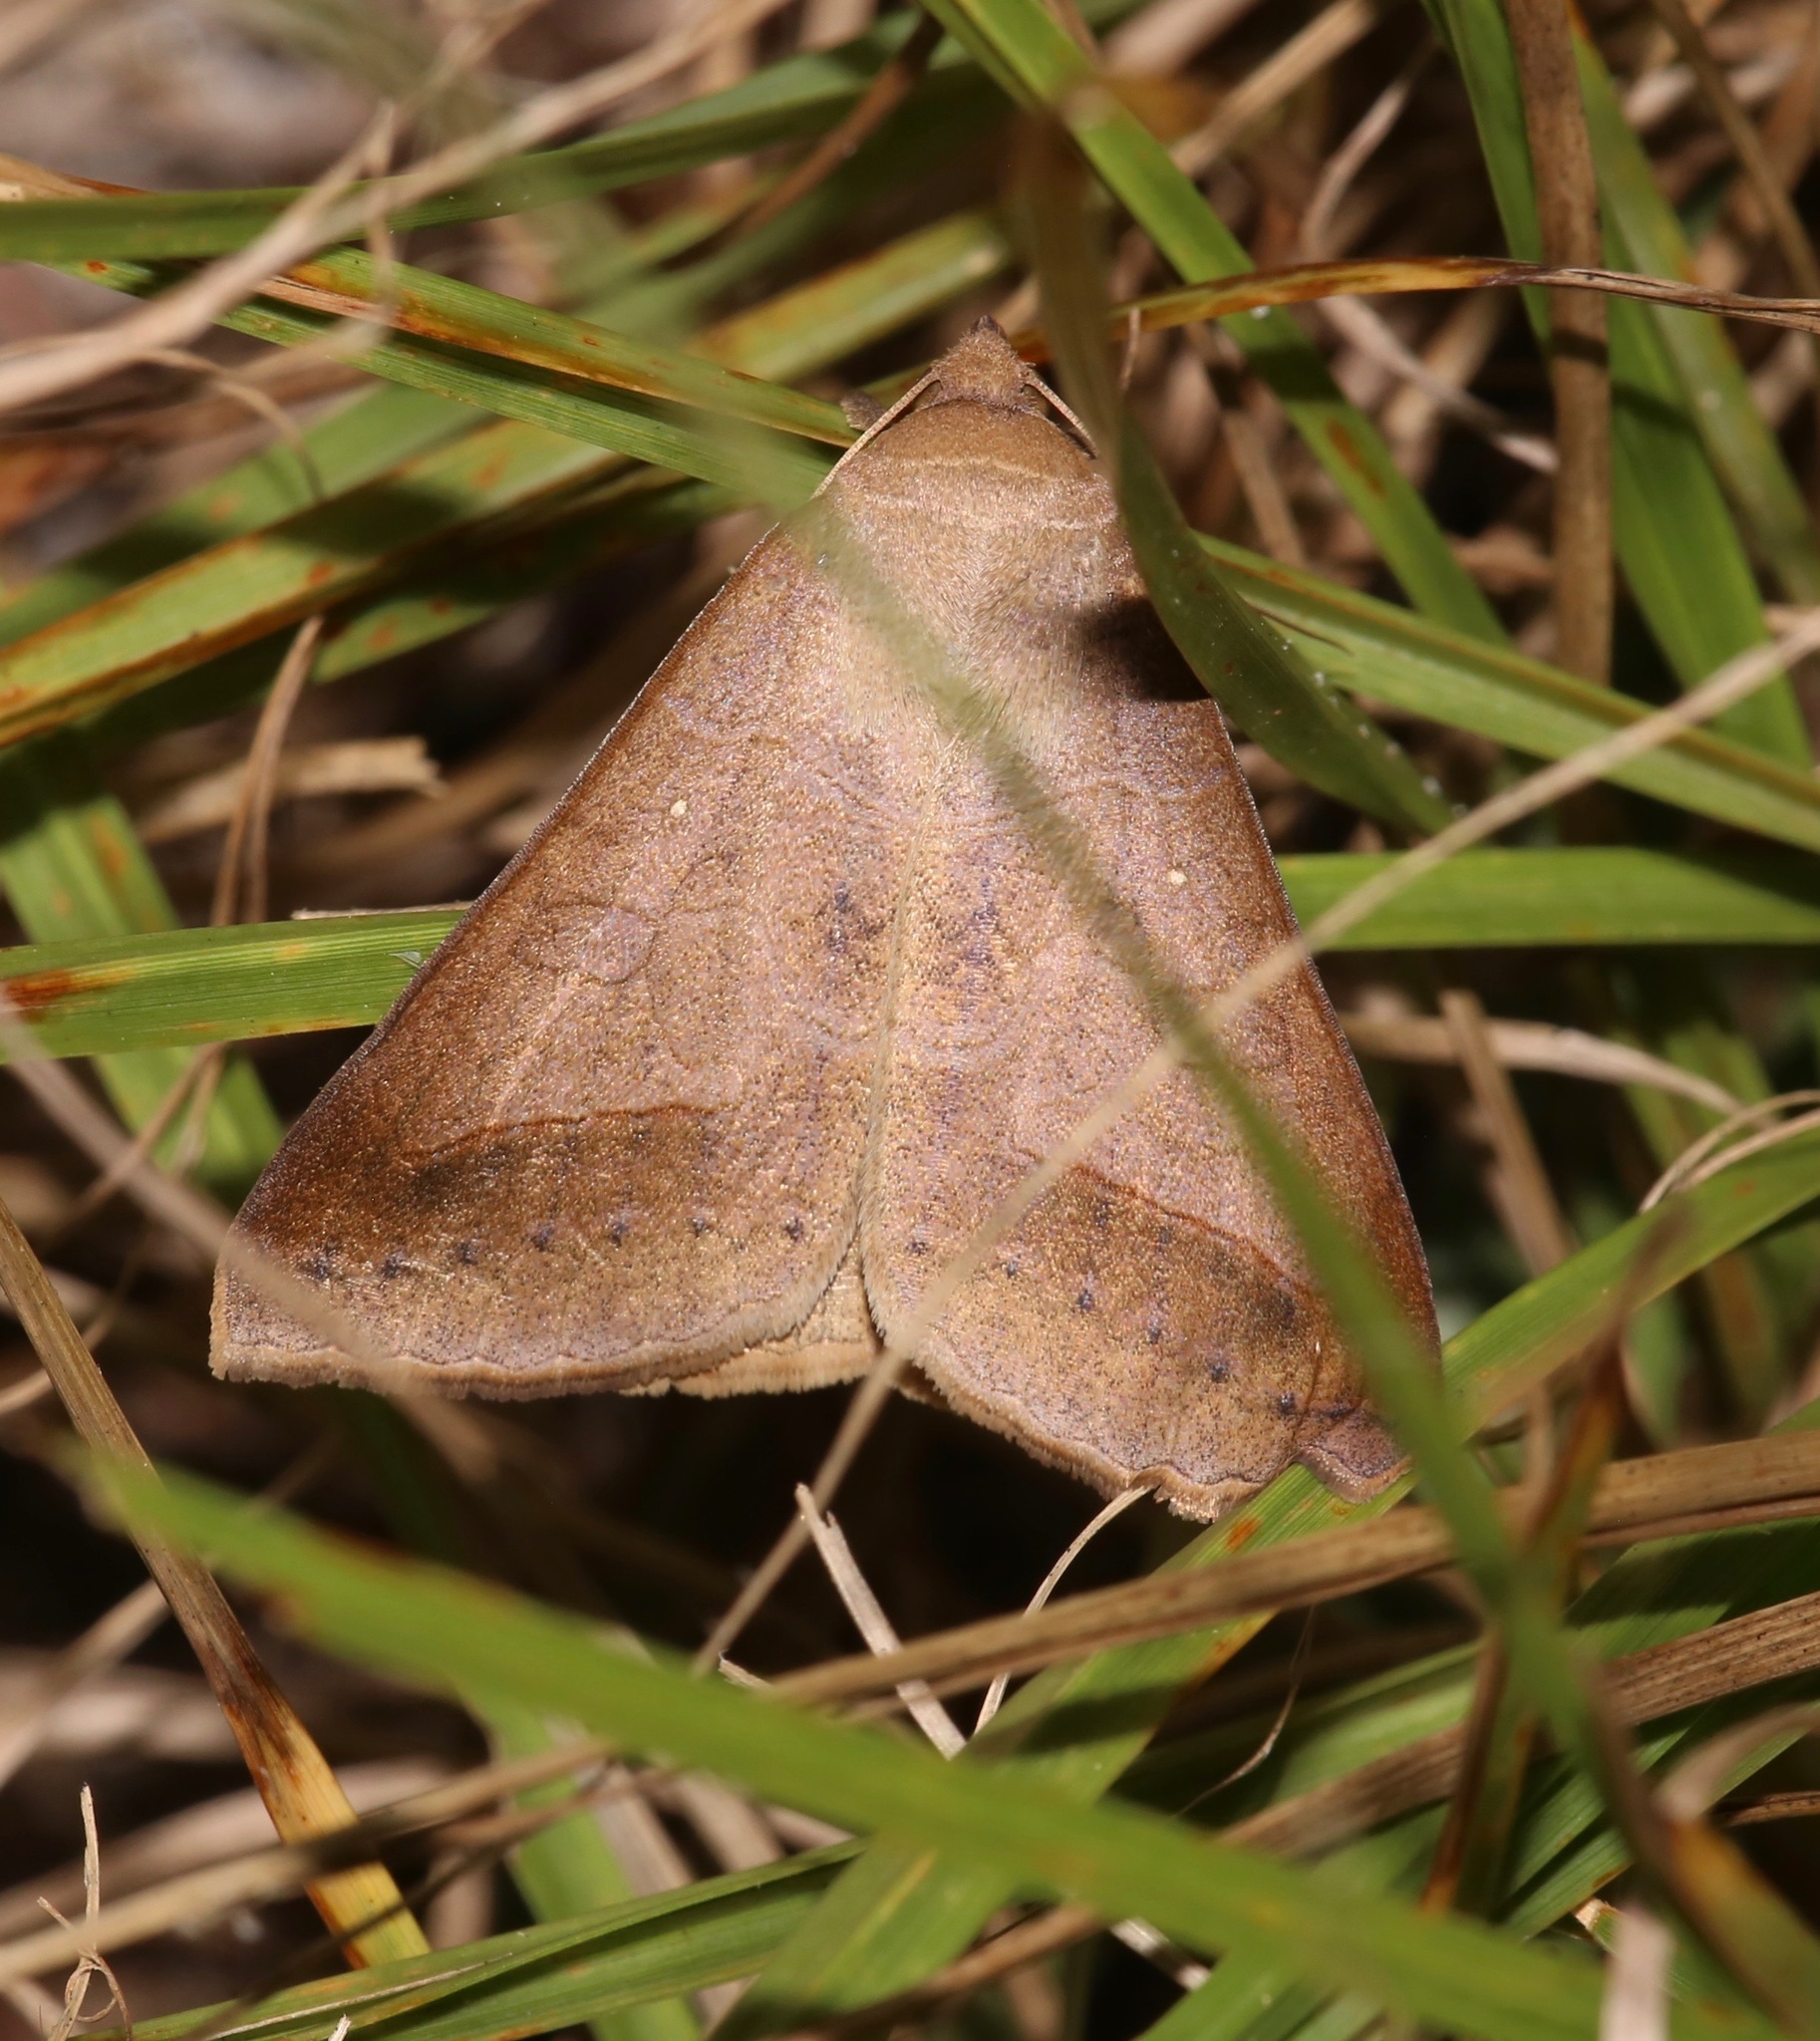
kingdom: Animalia
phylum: Arthropoda
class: Insecta
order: Lepidoptera
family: Erebidae
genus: Mocis
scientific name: Mocis marcida
